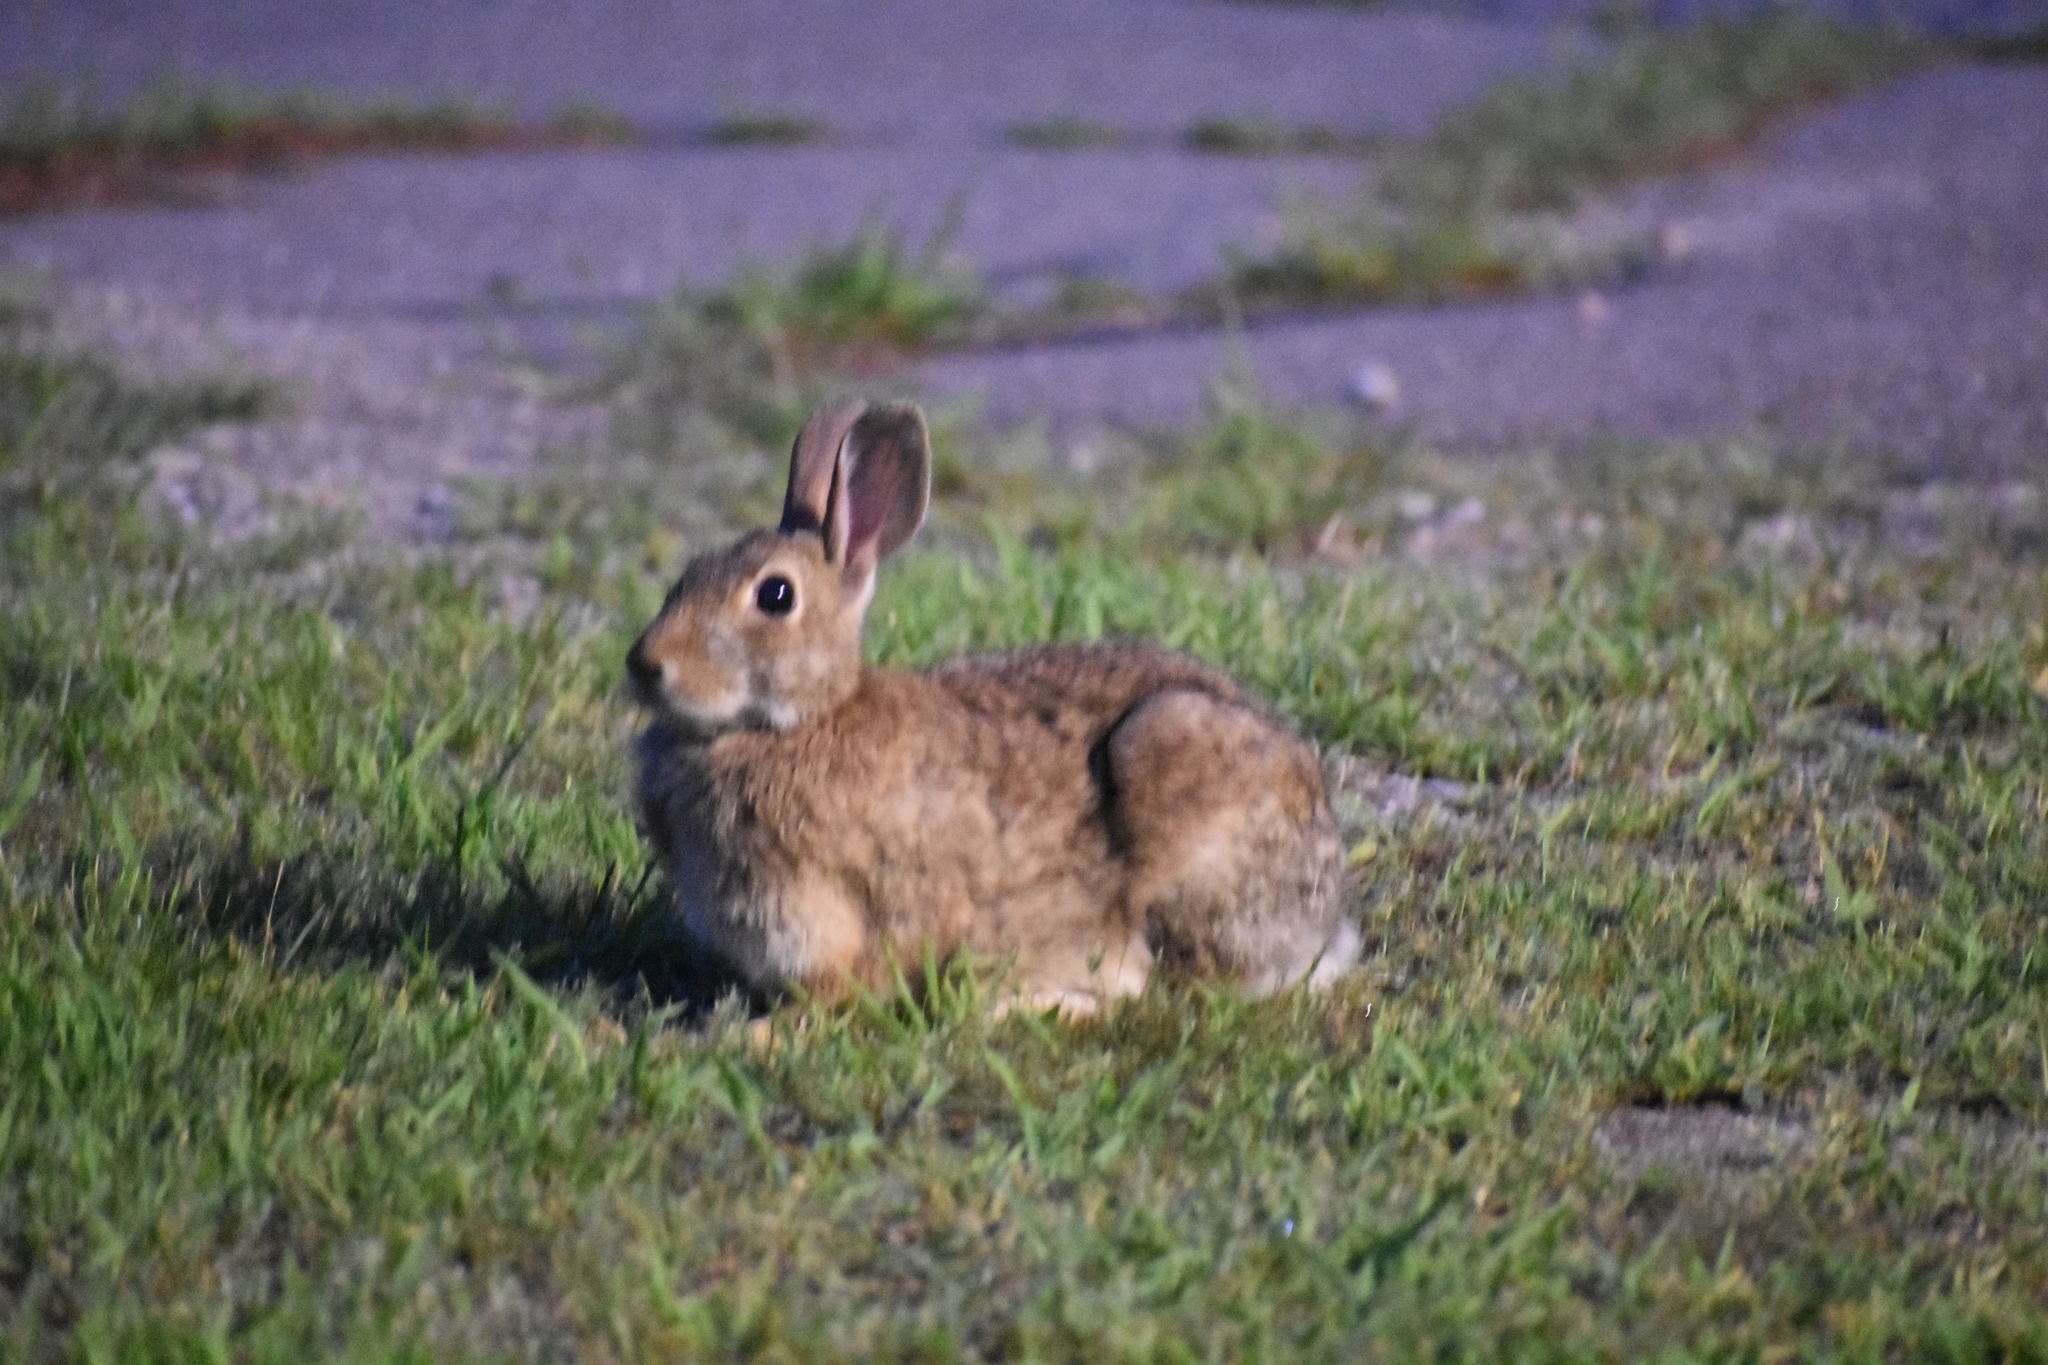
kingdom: Animalia
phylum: Chordata
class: Mammalia
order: Lagomorpha
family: Leporidae
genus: Sylvilagus
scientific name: Sylvilagus floridanus
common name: Eastern cottontail
